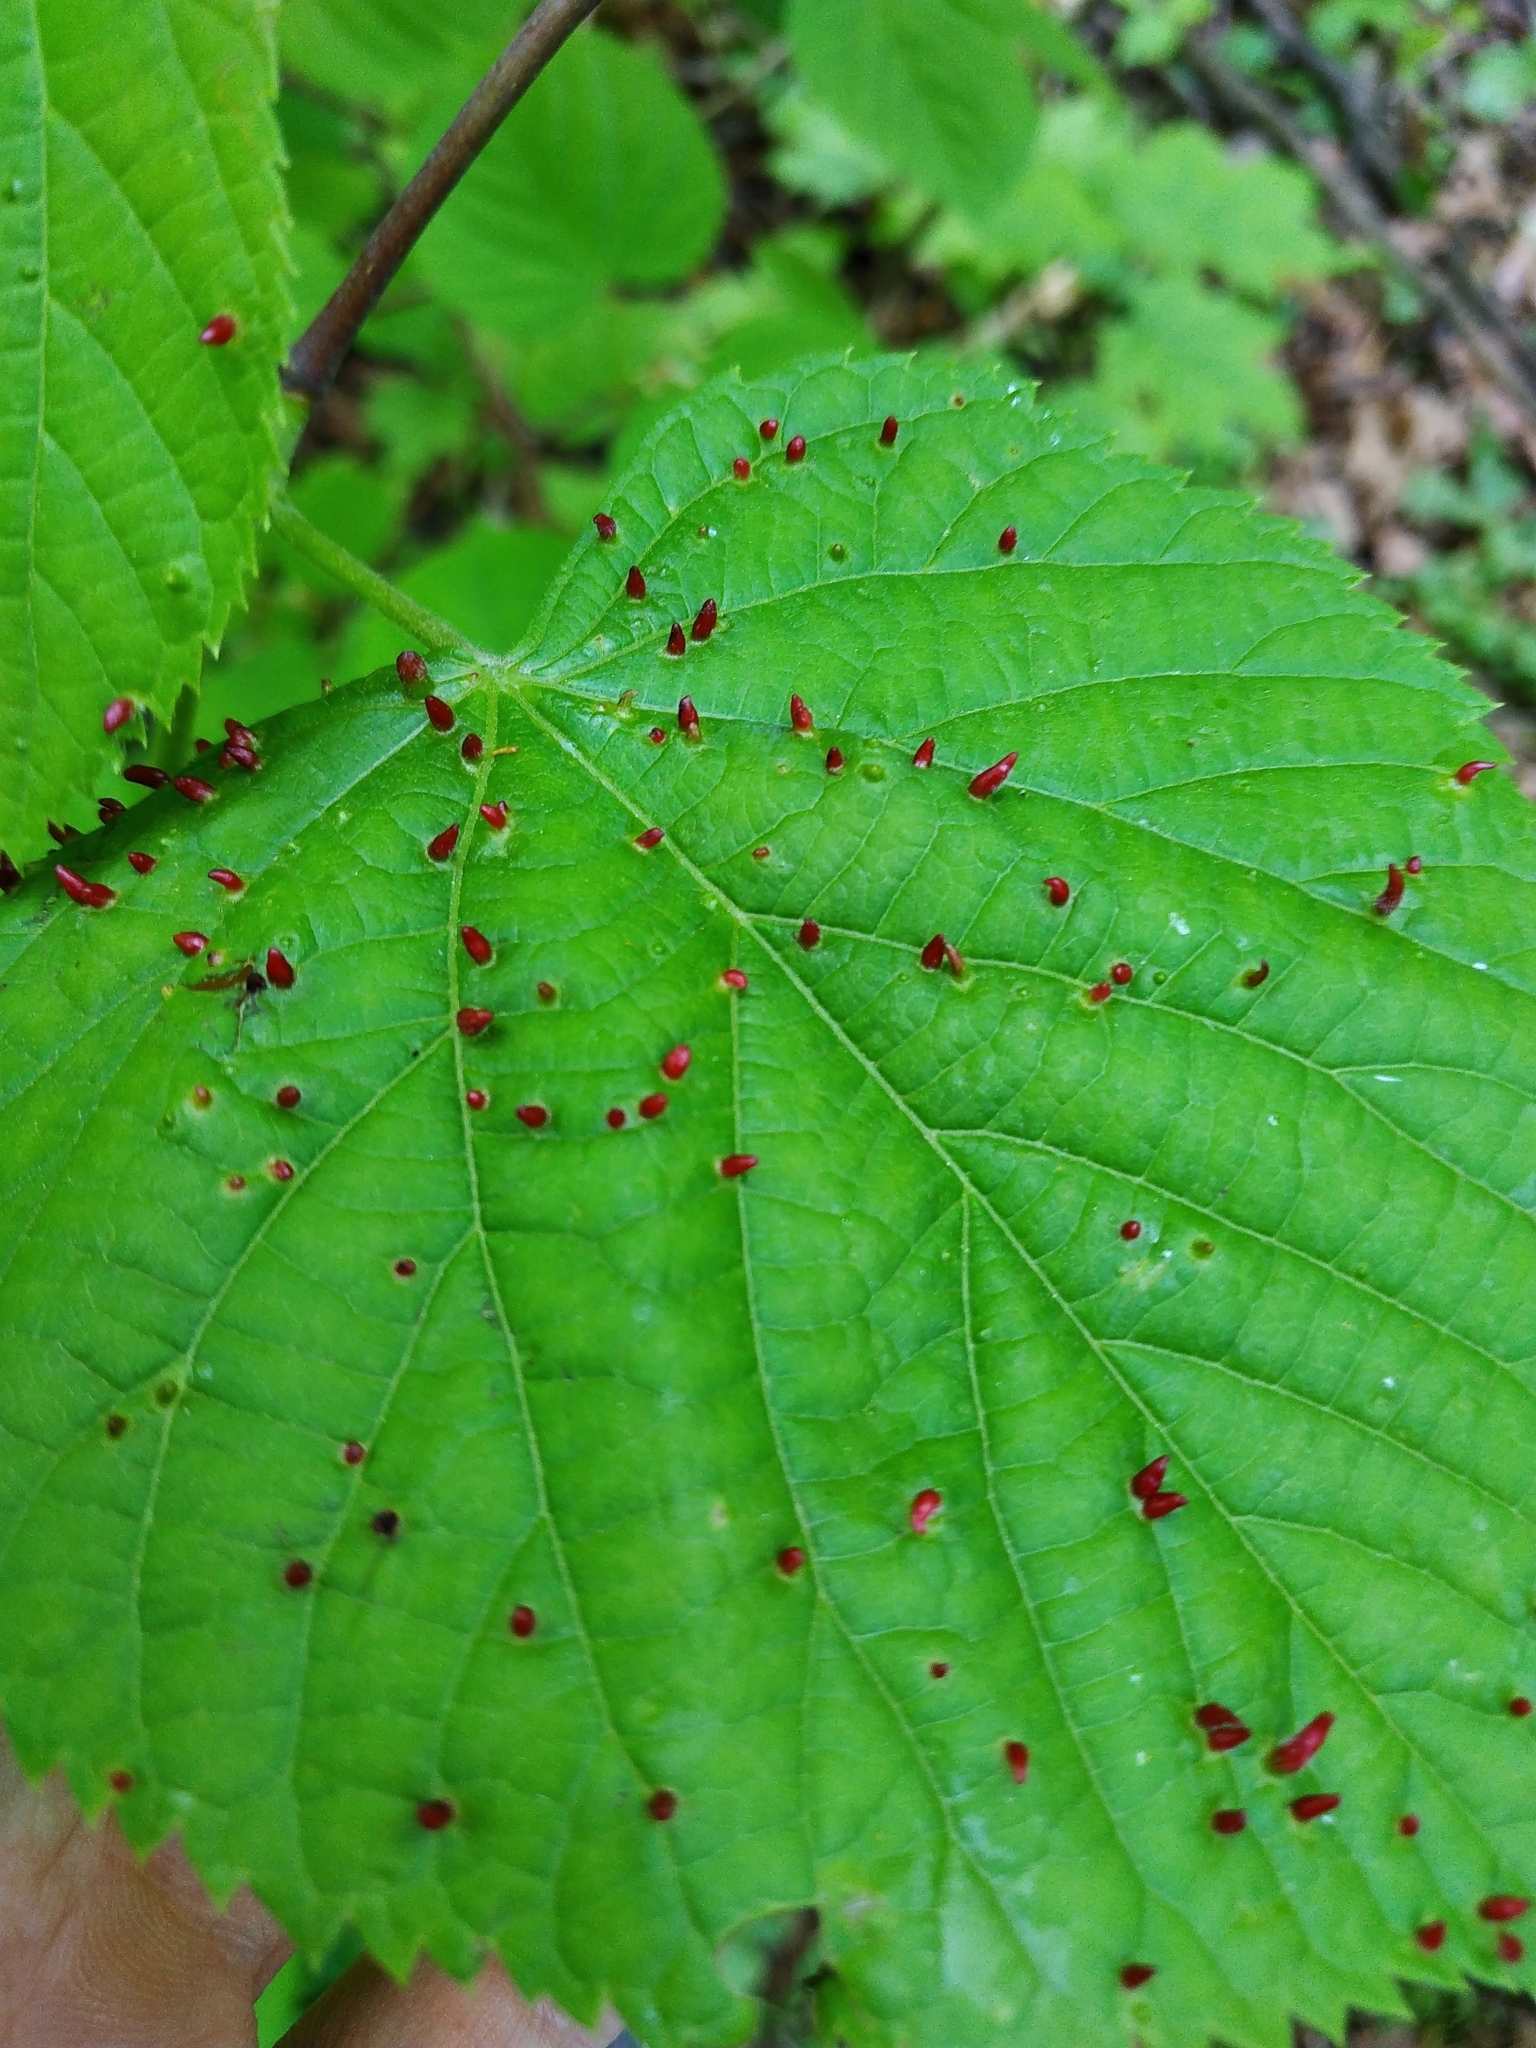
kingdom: Animalia
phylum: Arthropoda
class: Arachnida
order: Trombidiformes
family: Eriophyidae
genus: Eriophyes
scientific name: Eriophyes tiliae
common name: Red nail gall mite
